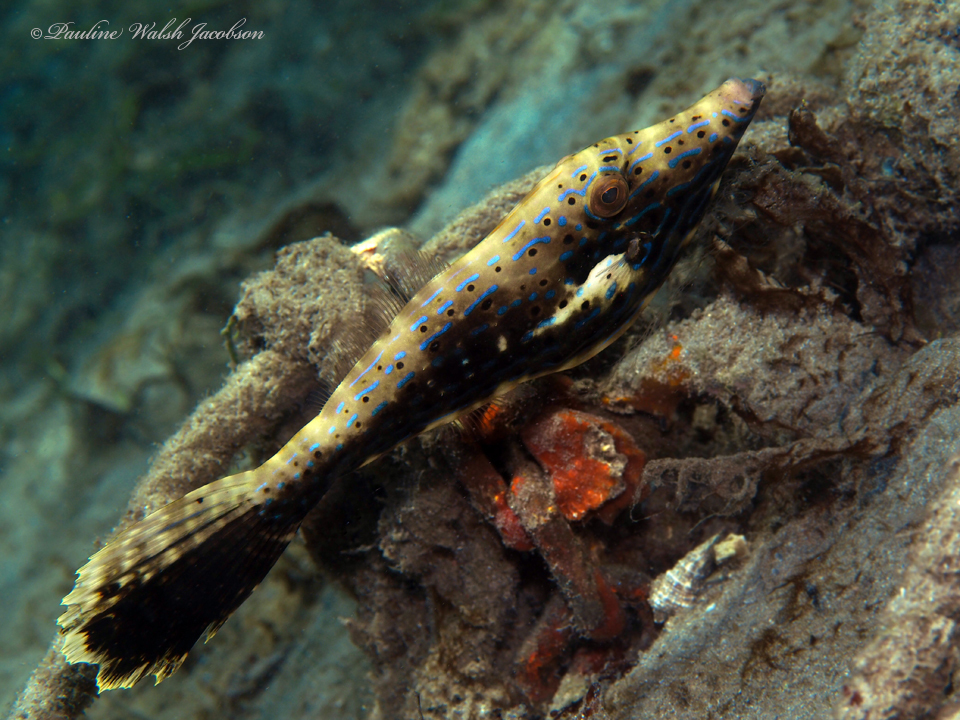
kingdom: Animalia
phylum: Chordata
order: Tetraodontiformes
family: Monacanthidae
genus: Aluterus
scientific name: Aluterus scriptus
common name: Scribbled leatherjacket filefish
